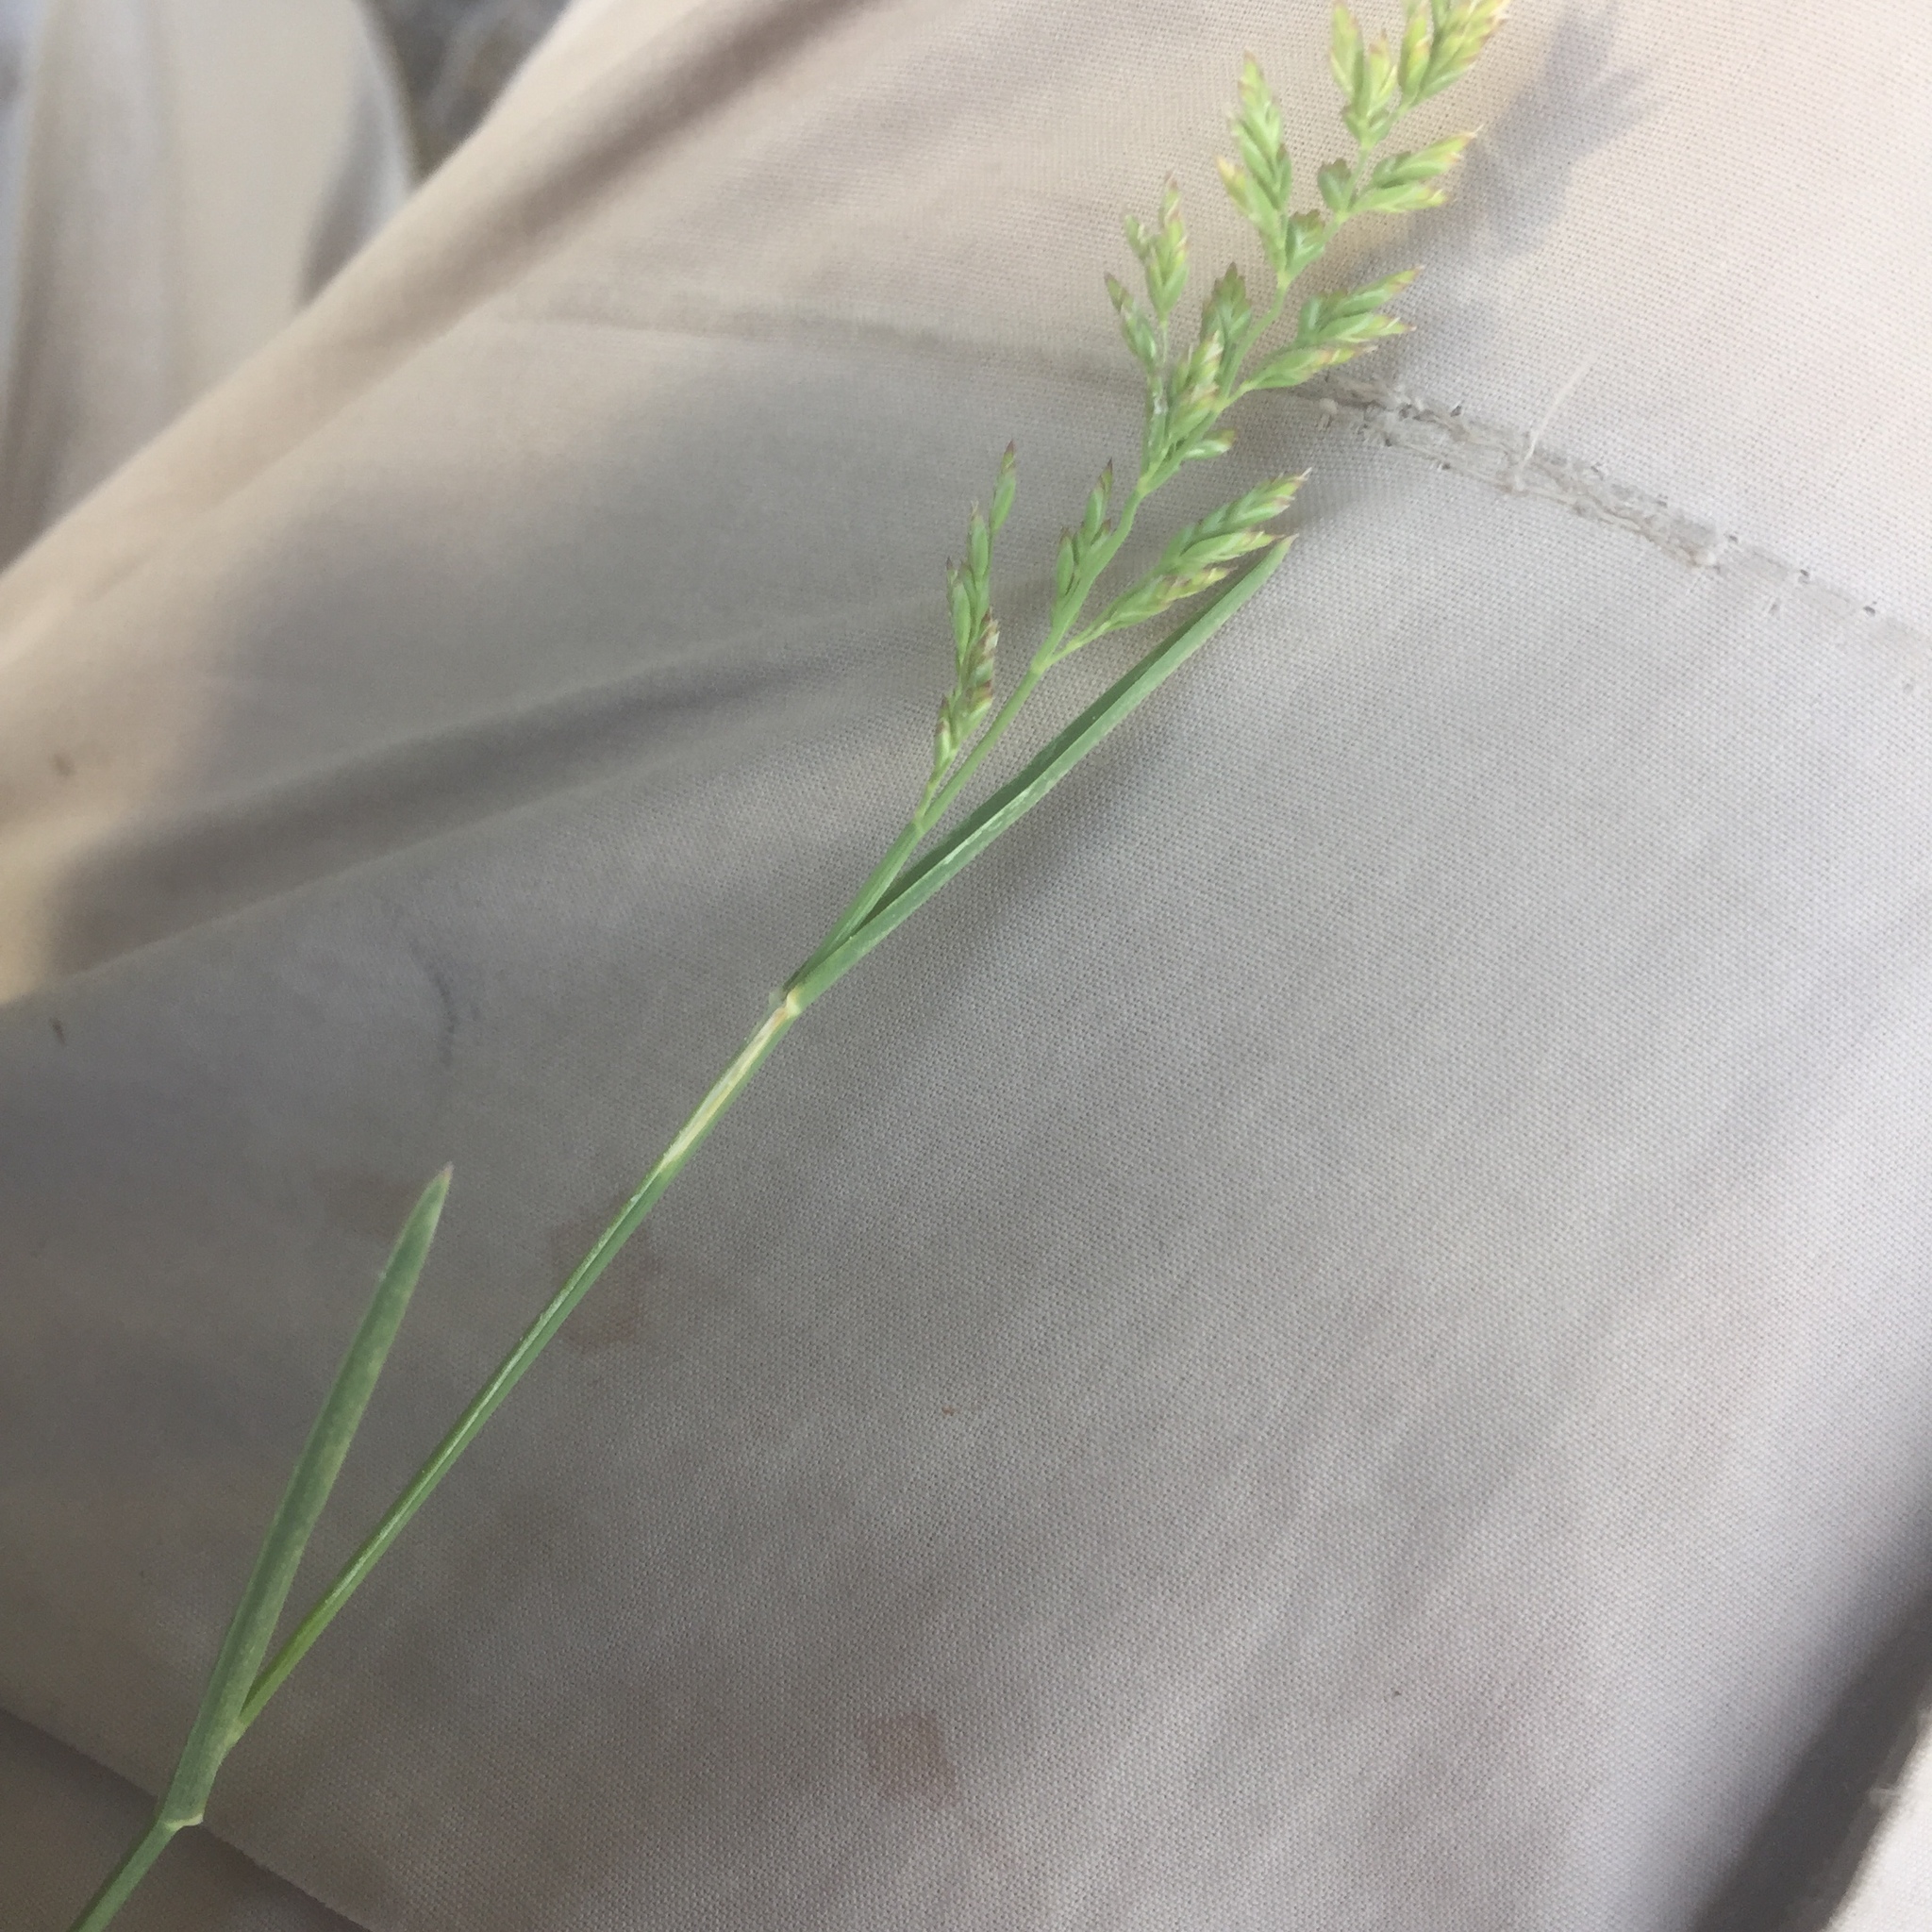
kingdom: Plantae
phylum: Tracheophyta
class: Liliopsida
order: Poales
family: Poaceae
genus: Poa
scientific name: Poa compressa
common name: Canada bluegrass
